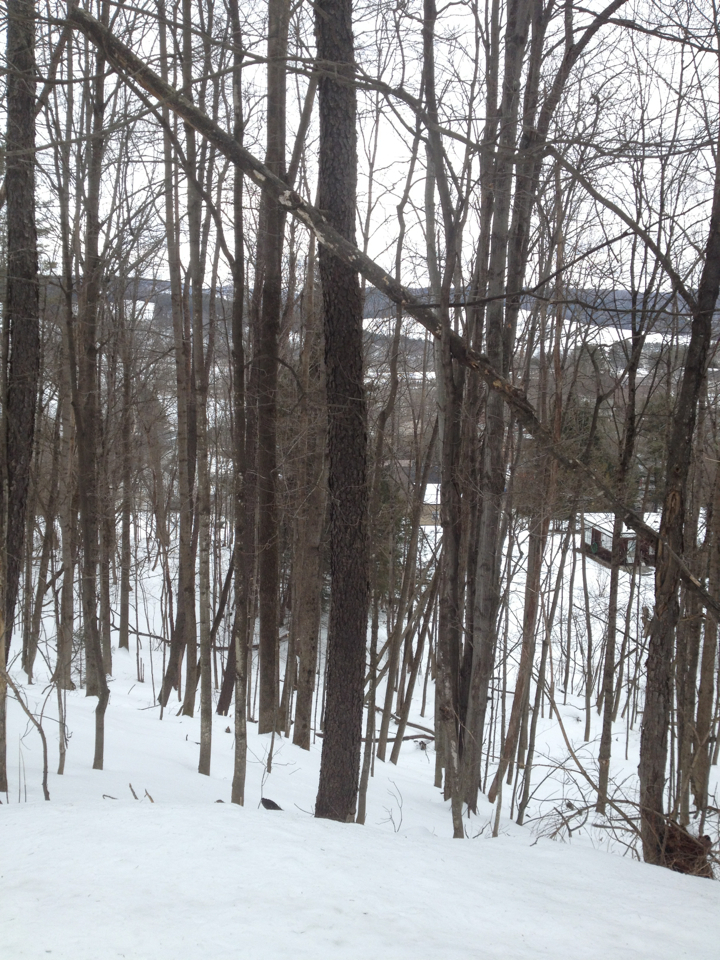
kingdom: Plantae
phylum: Tracheophyta
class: Magnoliopsida
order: Rosales
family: Rosaceae
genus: Prunus
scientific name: Prunus serotina
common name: Black cherry
